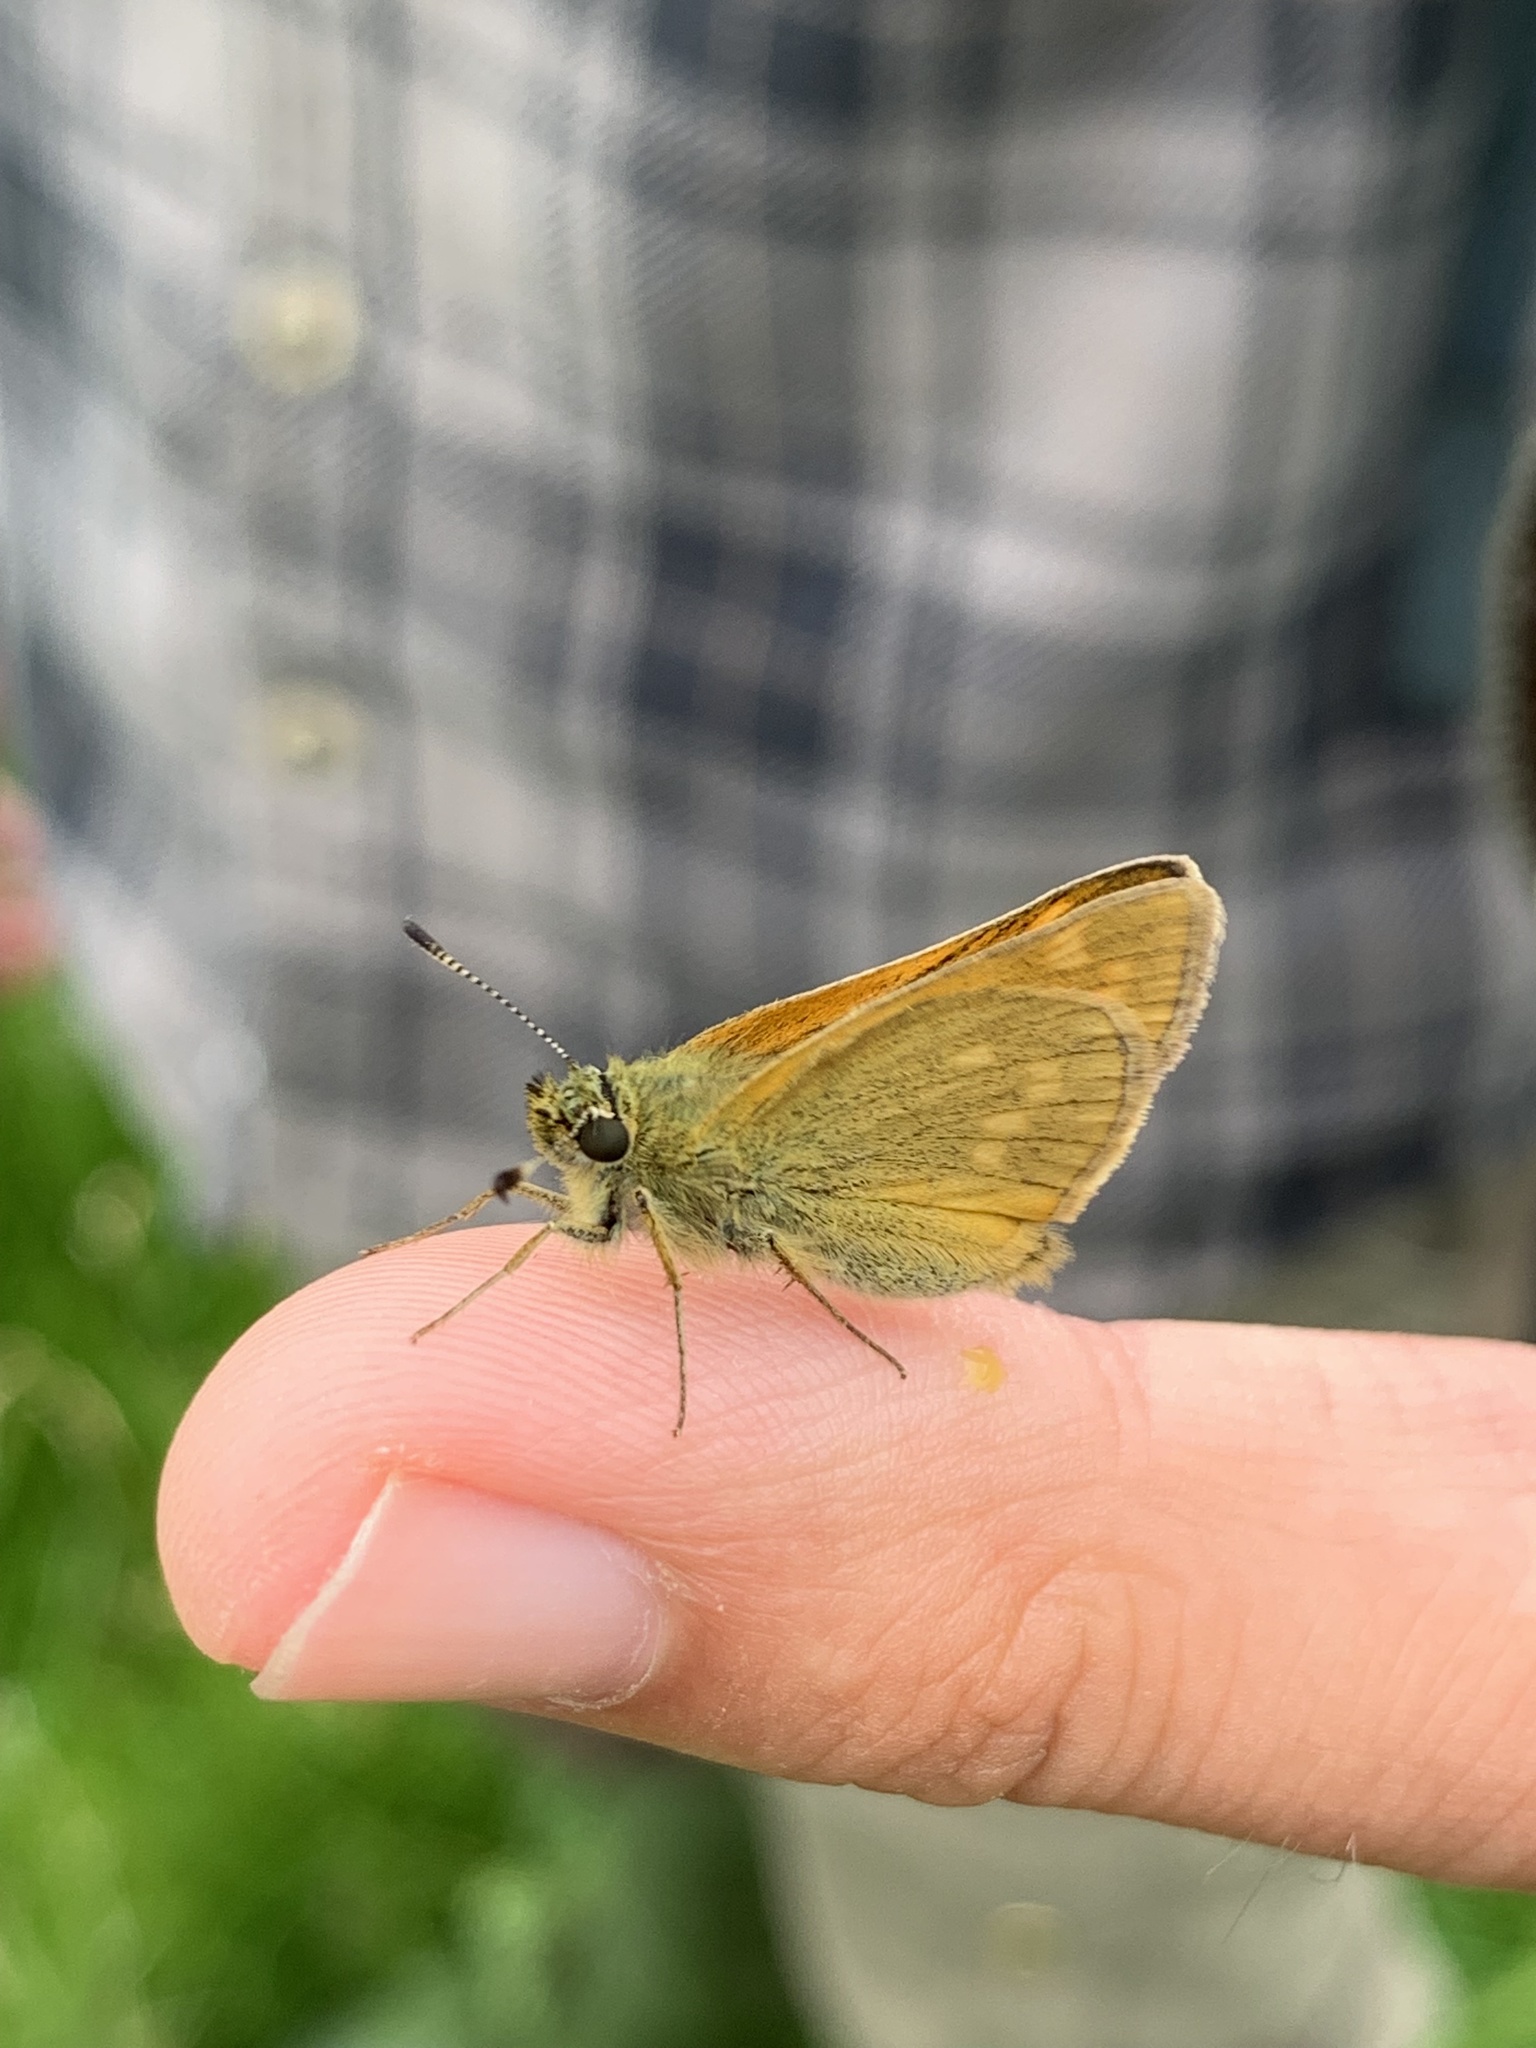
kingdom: Animalia
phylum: Arthropoda
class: Insecta
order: Lepidoptera
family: Hesperiidae
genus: Ochlodes
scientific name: Ochlodes venata
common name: Large skipper
